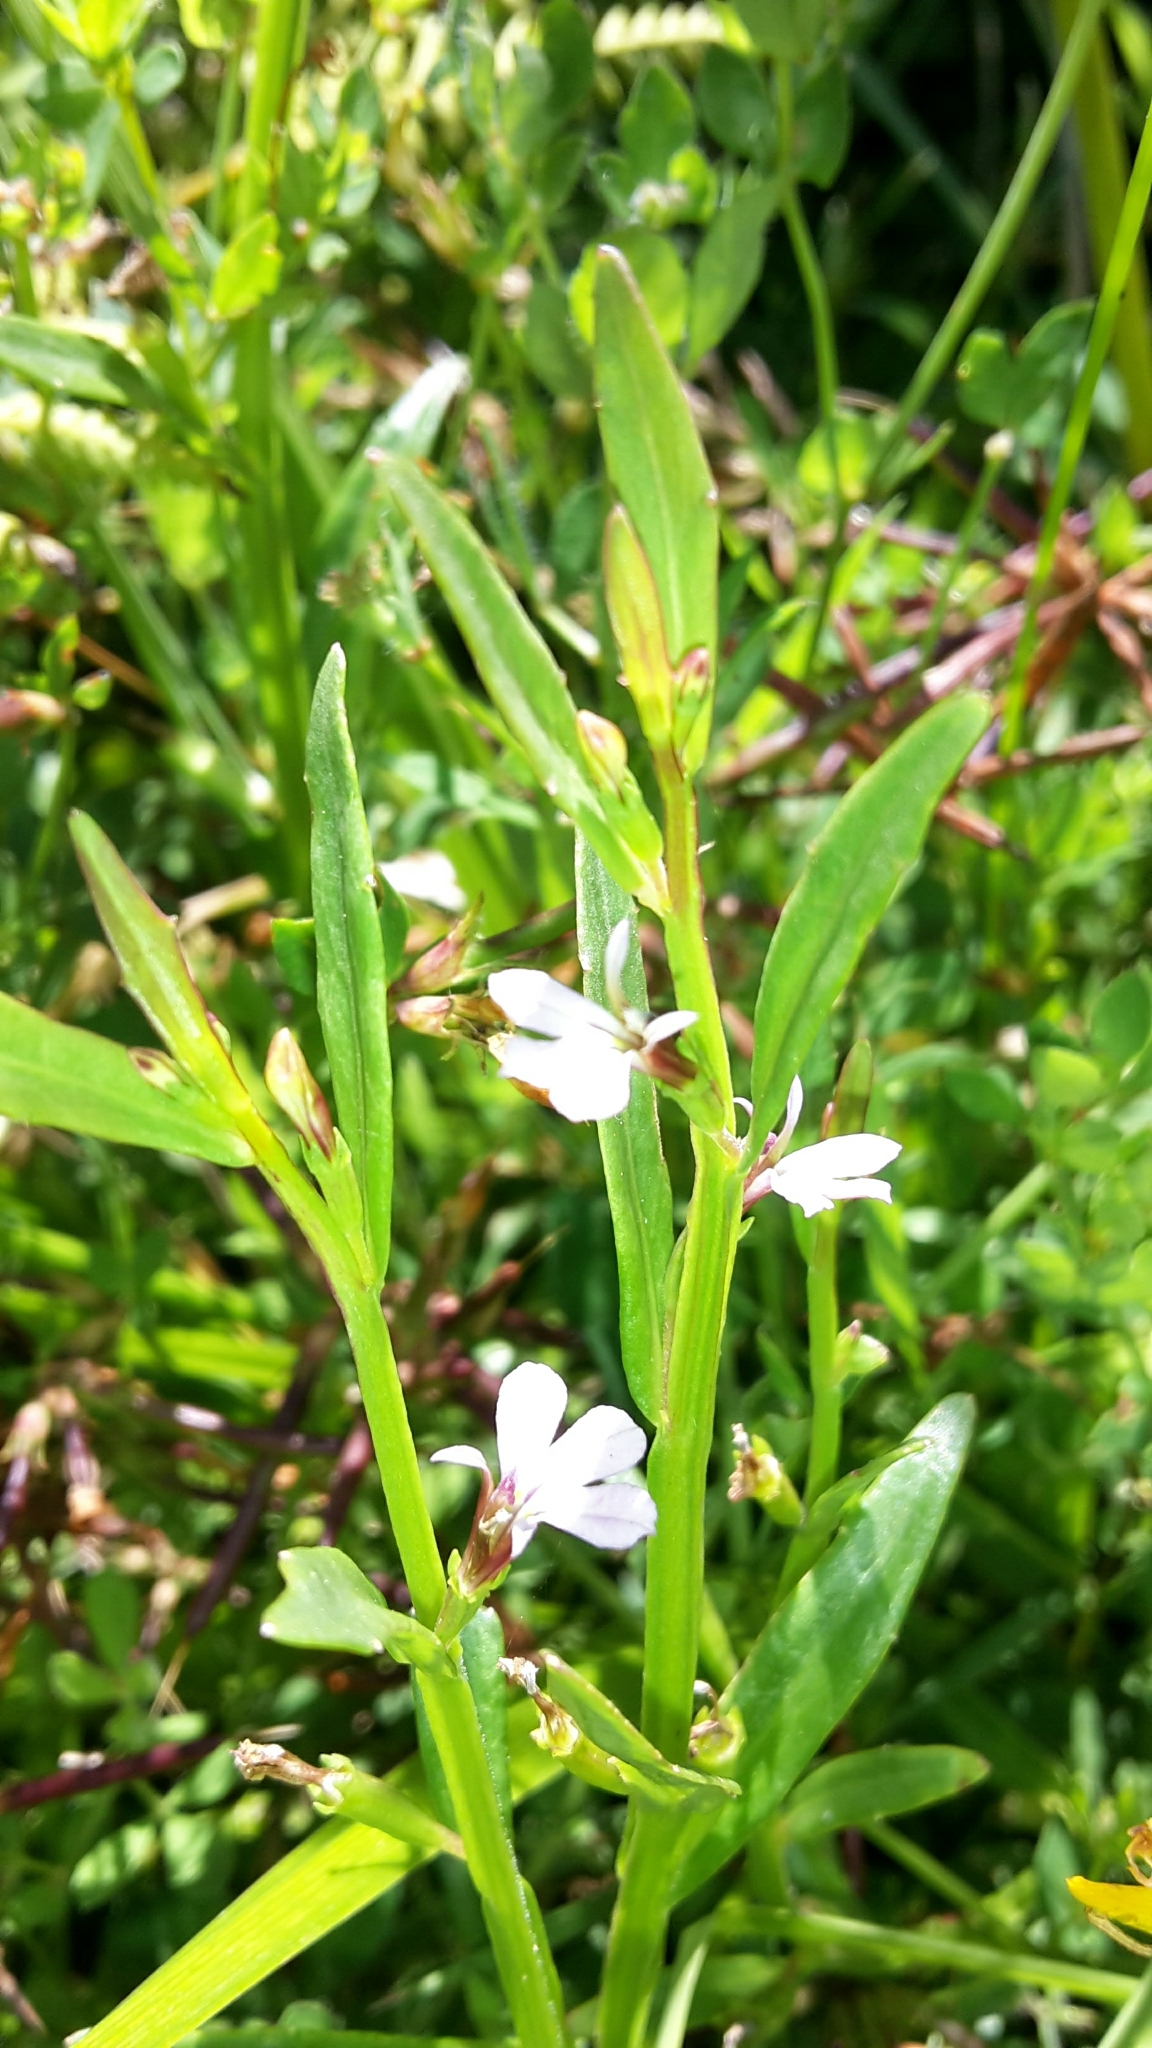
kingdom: Plantae
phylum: Tracheophyta
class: Magnoliopsida
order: Asterales
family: Campanulaceae
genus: Lobelia
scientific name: Lobelia anceps
